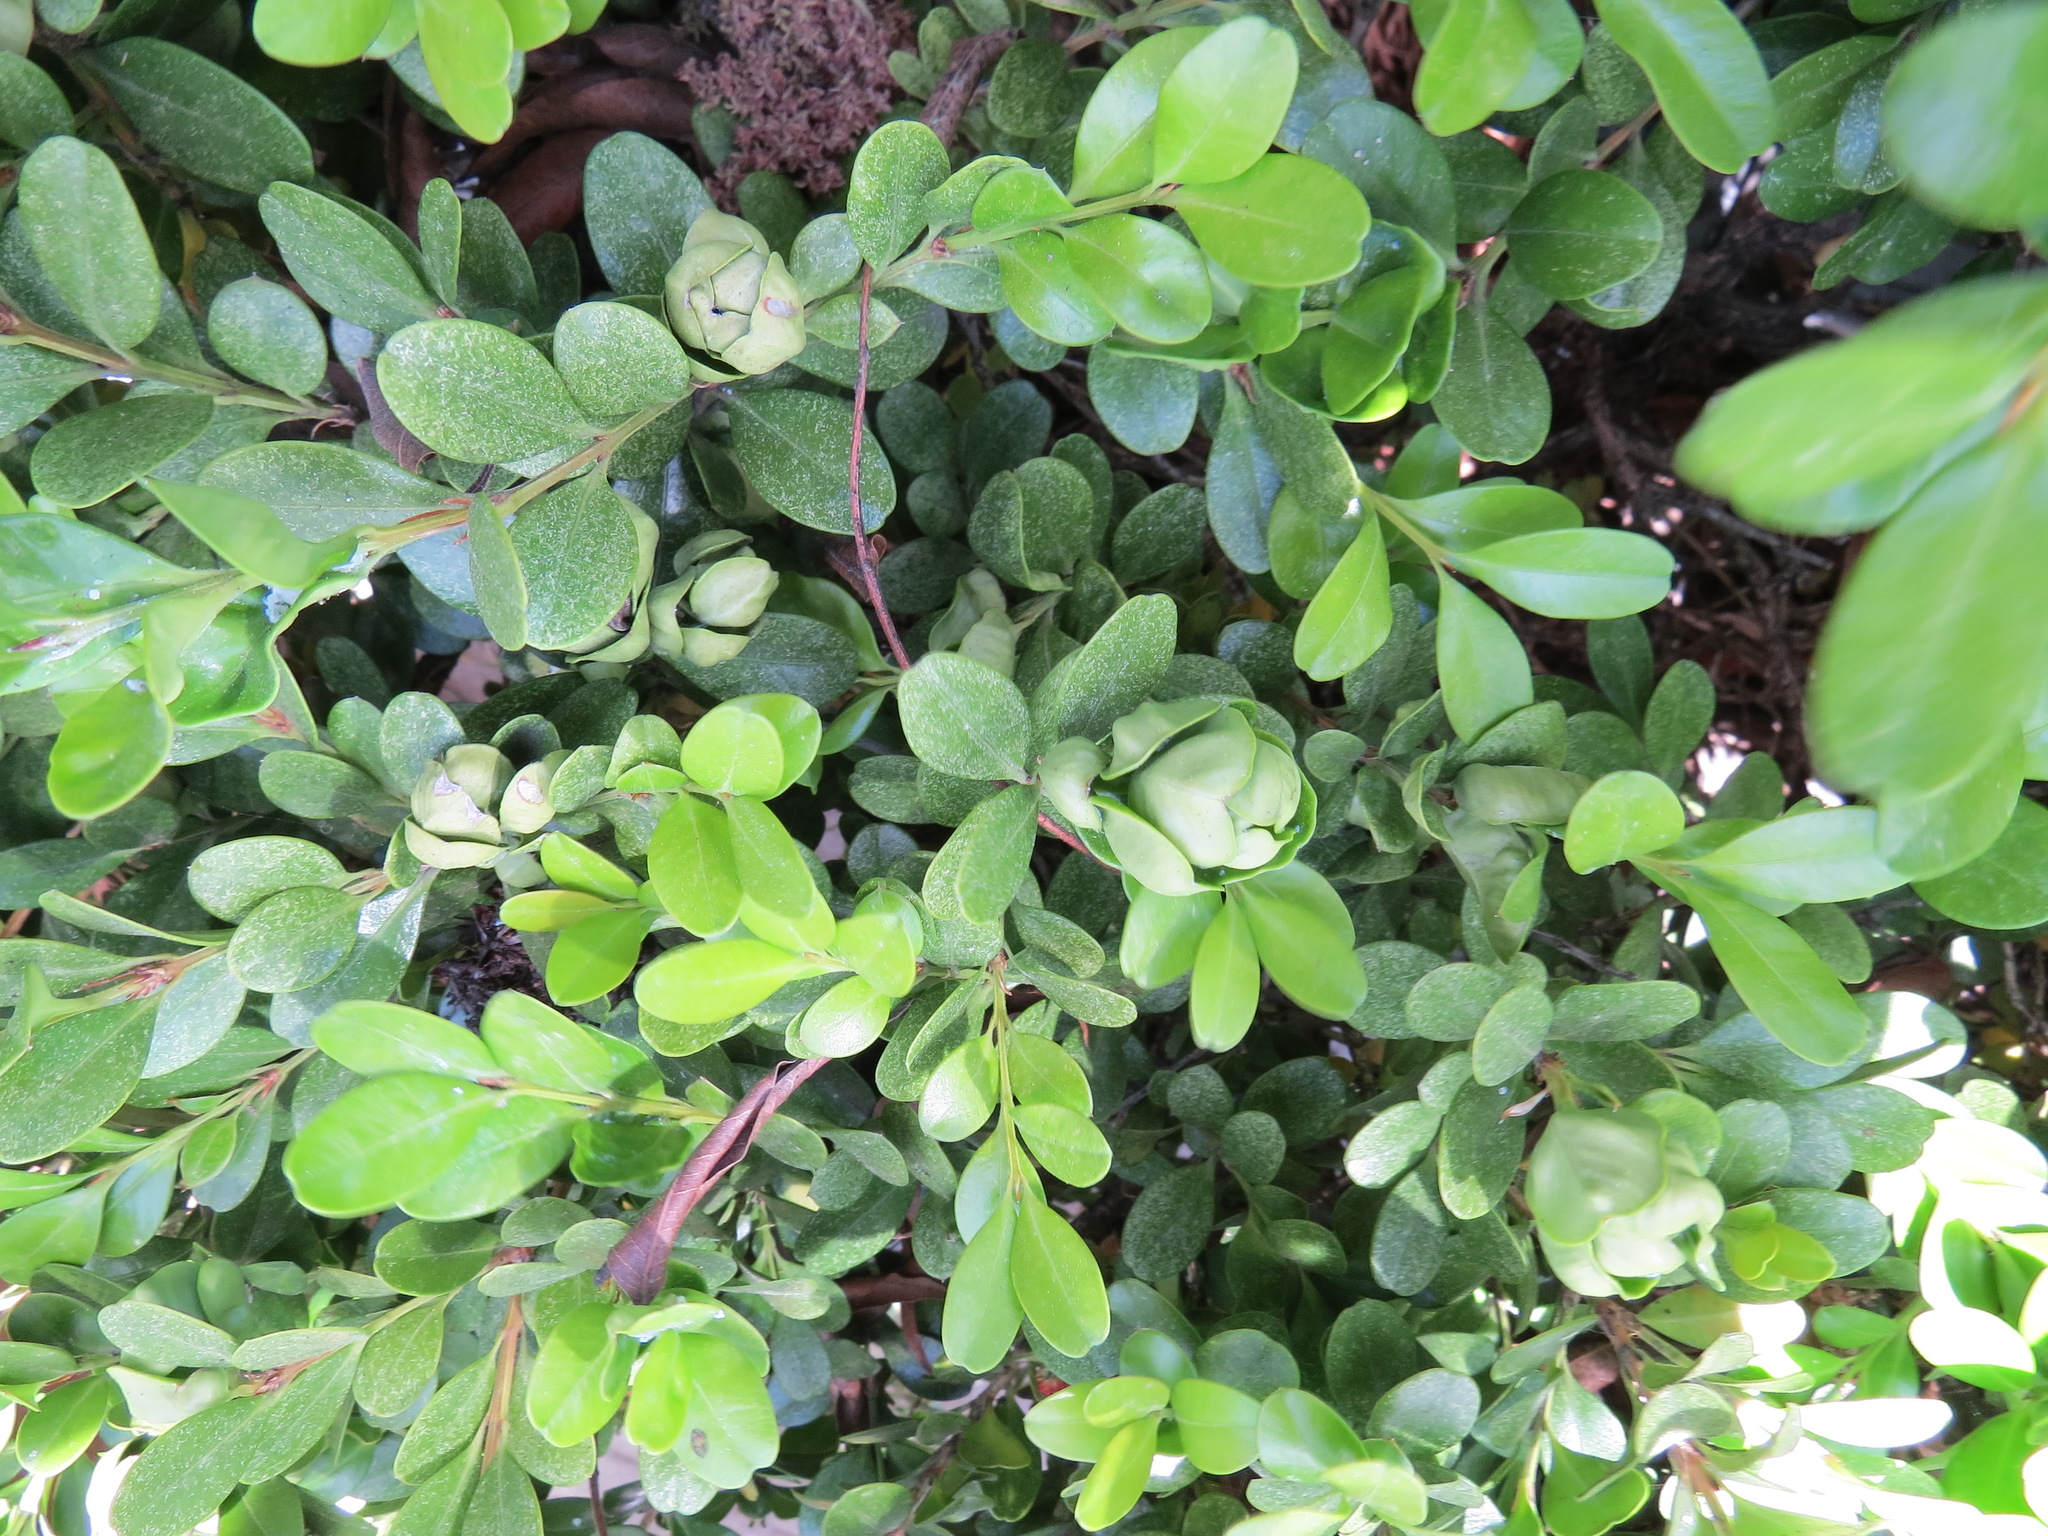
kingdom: Animalia
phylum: Arthropoda
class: Insecta
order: Hemiptera
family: Psyllidae
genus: Psylla
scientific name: Psylla buxi
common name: Boxwood psyllid
